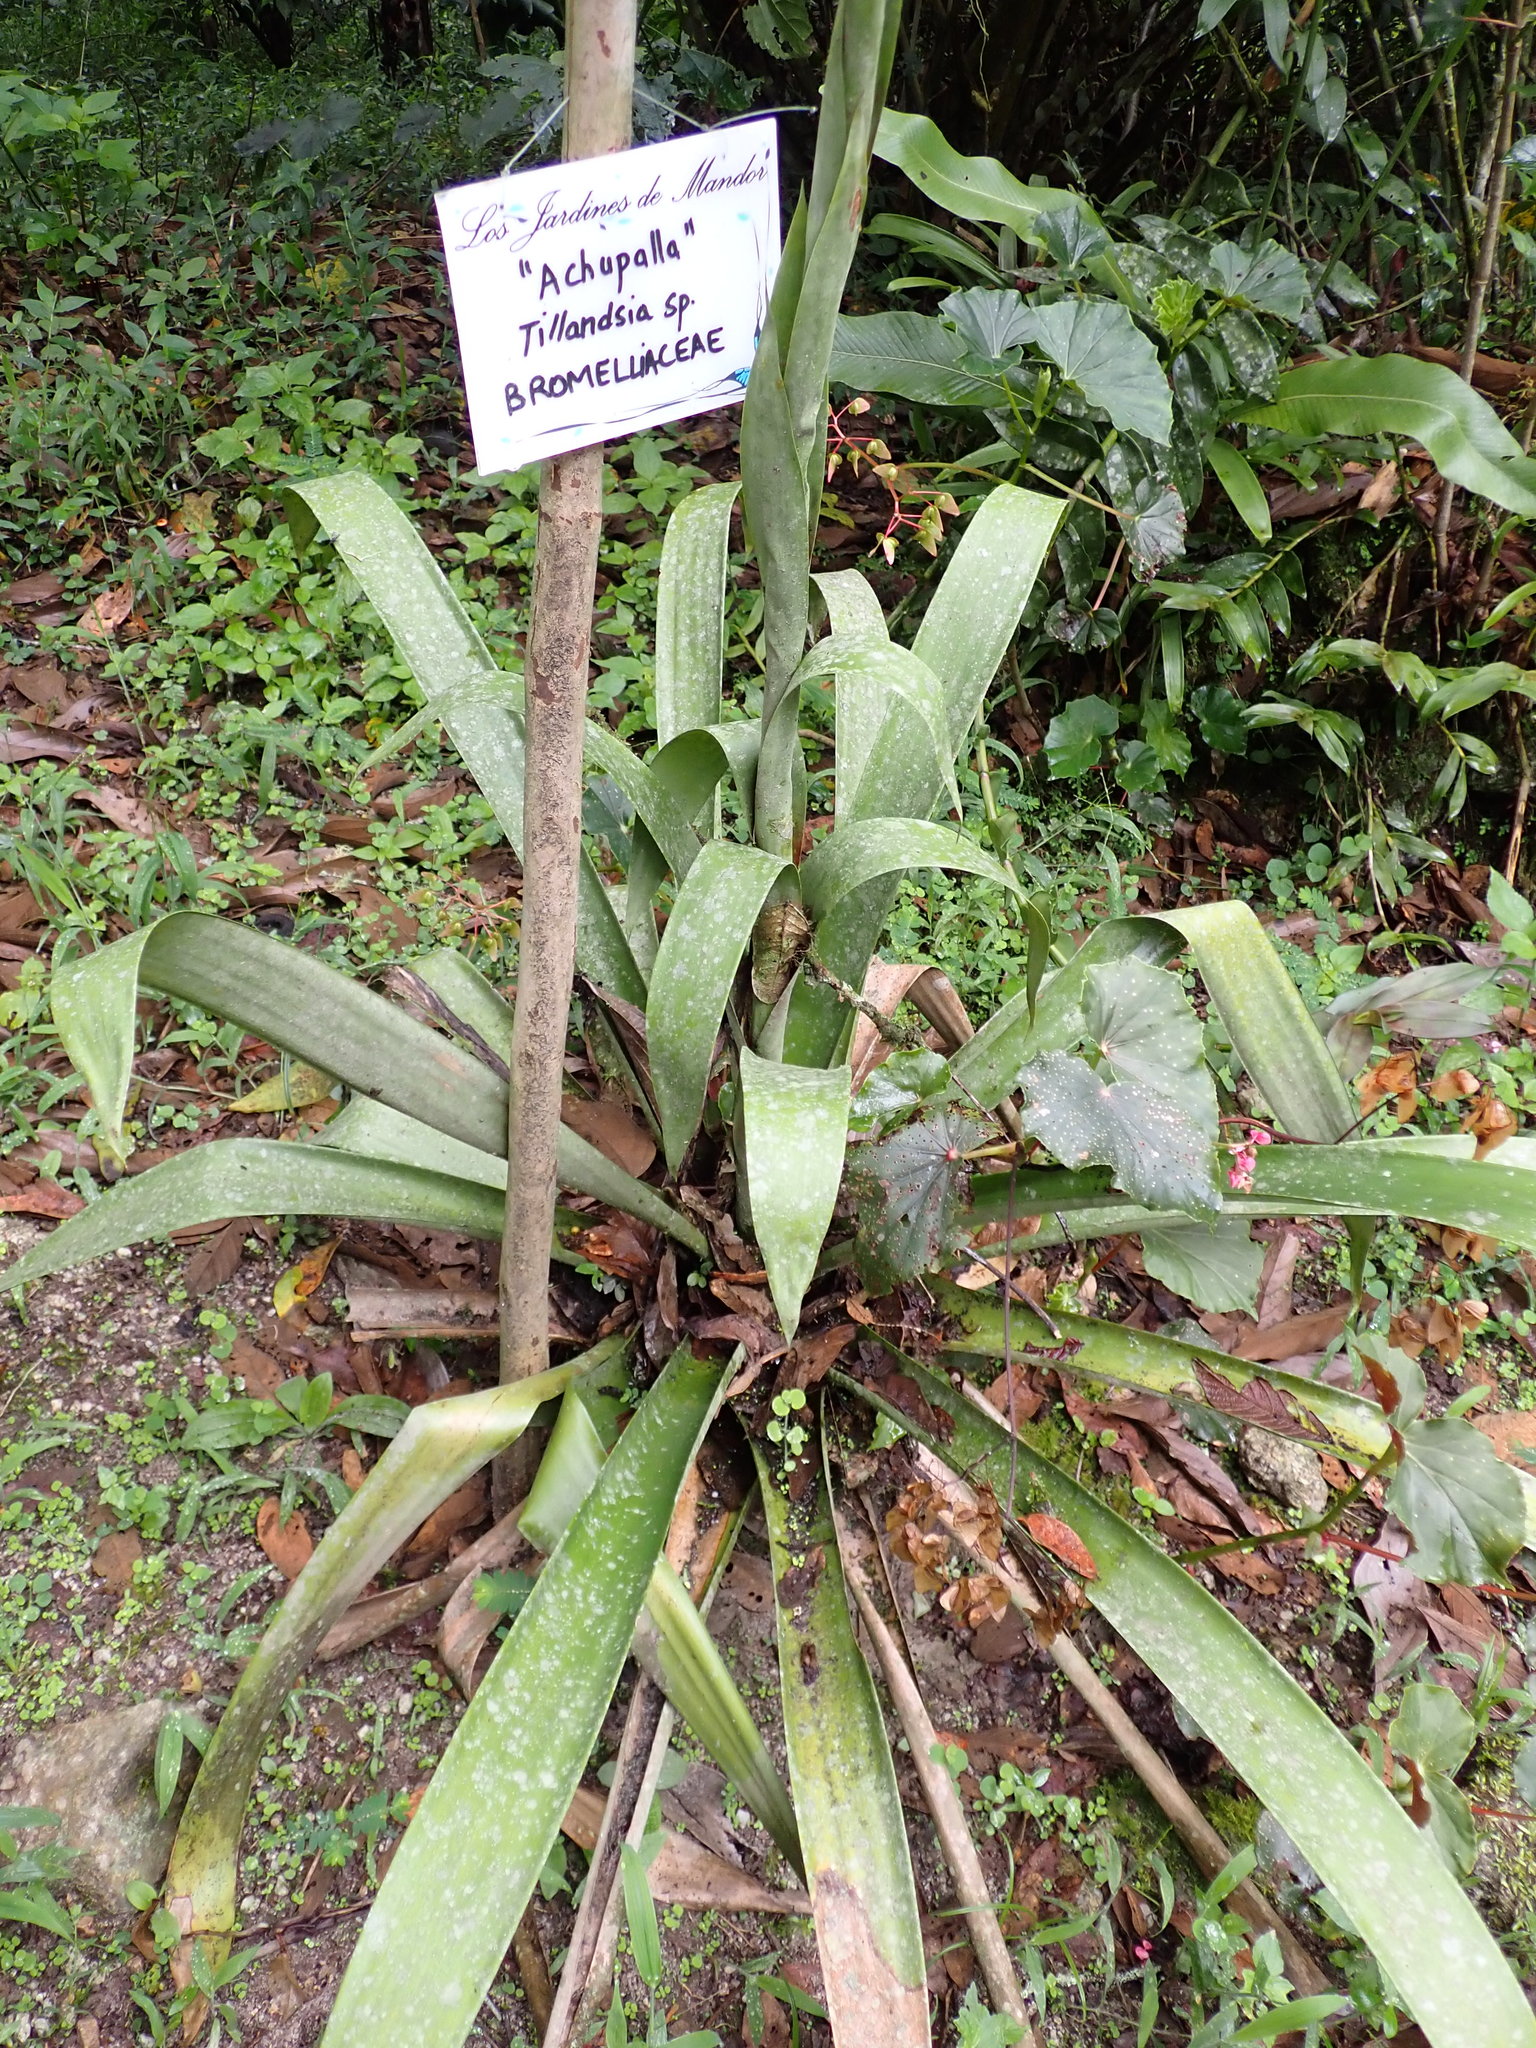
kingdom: Plantae
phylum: Tracheophyta
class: Liliopsida
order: Poales
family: Bromeliaceae
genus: Guzmania
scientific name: Guzmania undulatobracteata
